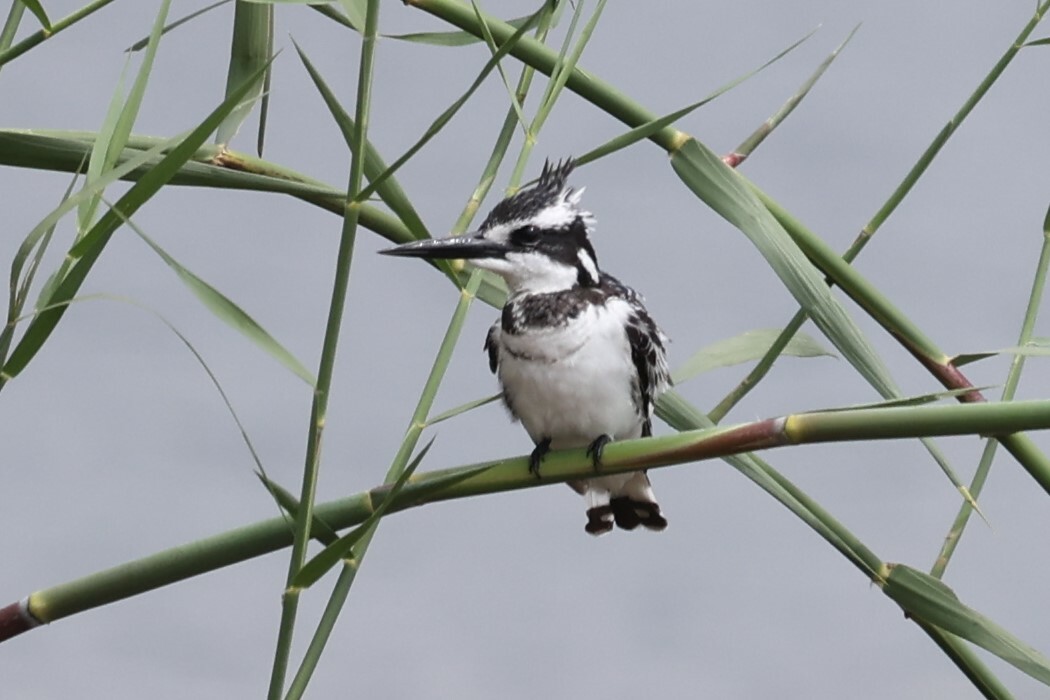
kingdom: Animalia
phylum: Chordata
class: Aves
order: Coraciiformes
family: Alcedinidae
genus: Ceryle
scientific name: Ceryle rudis
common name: Pied kingfisher
